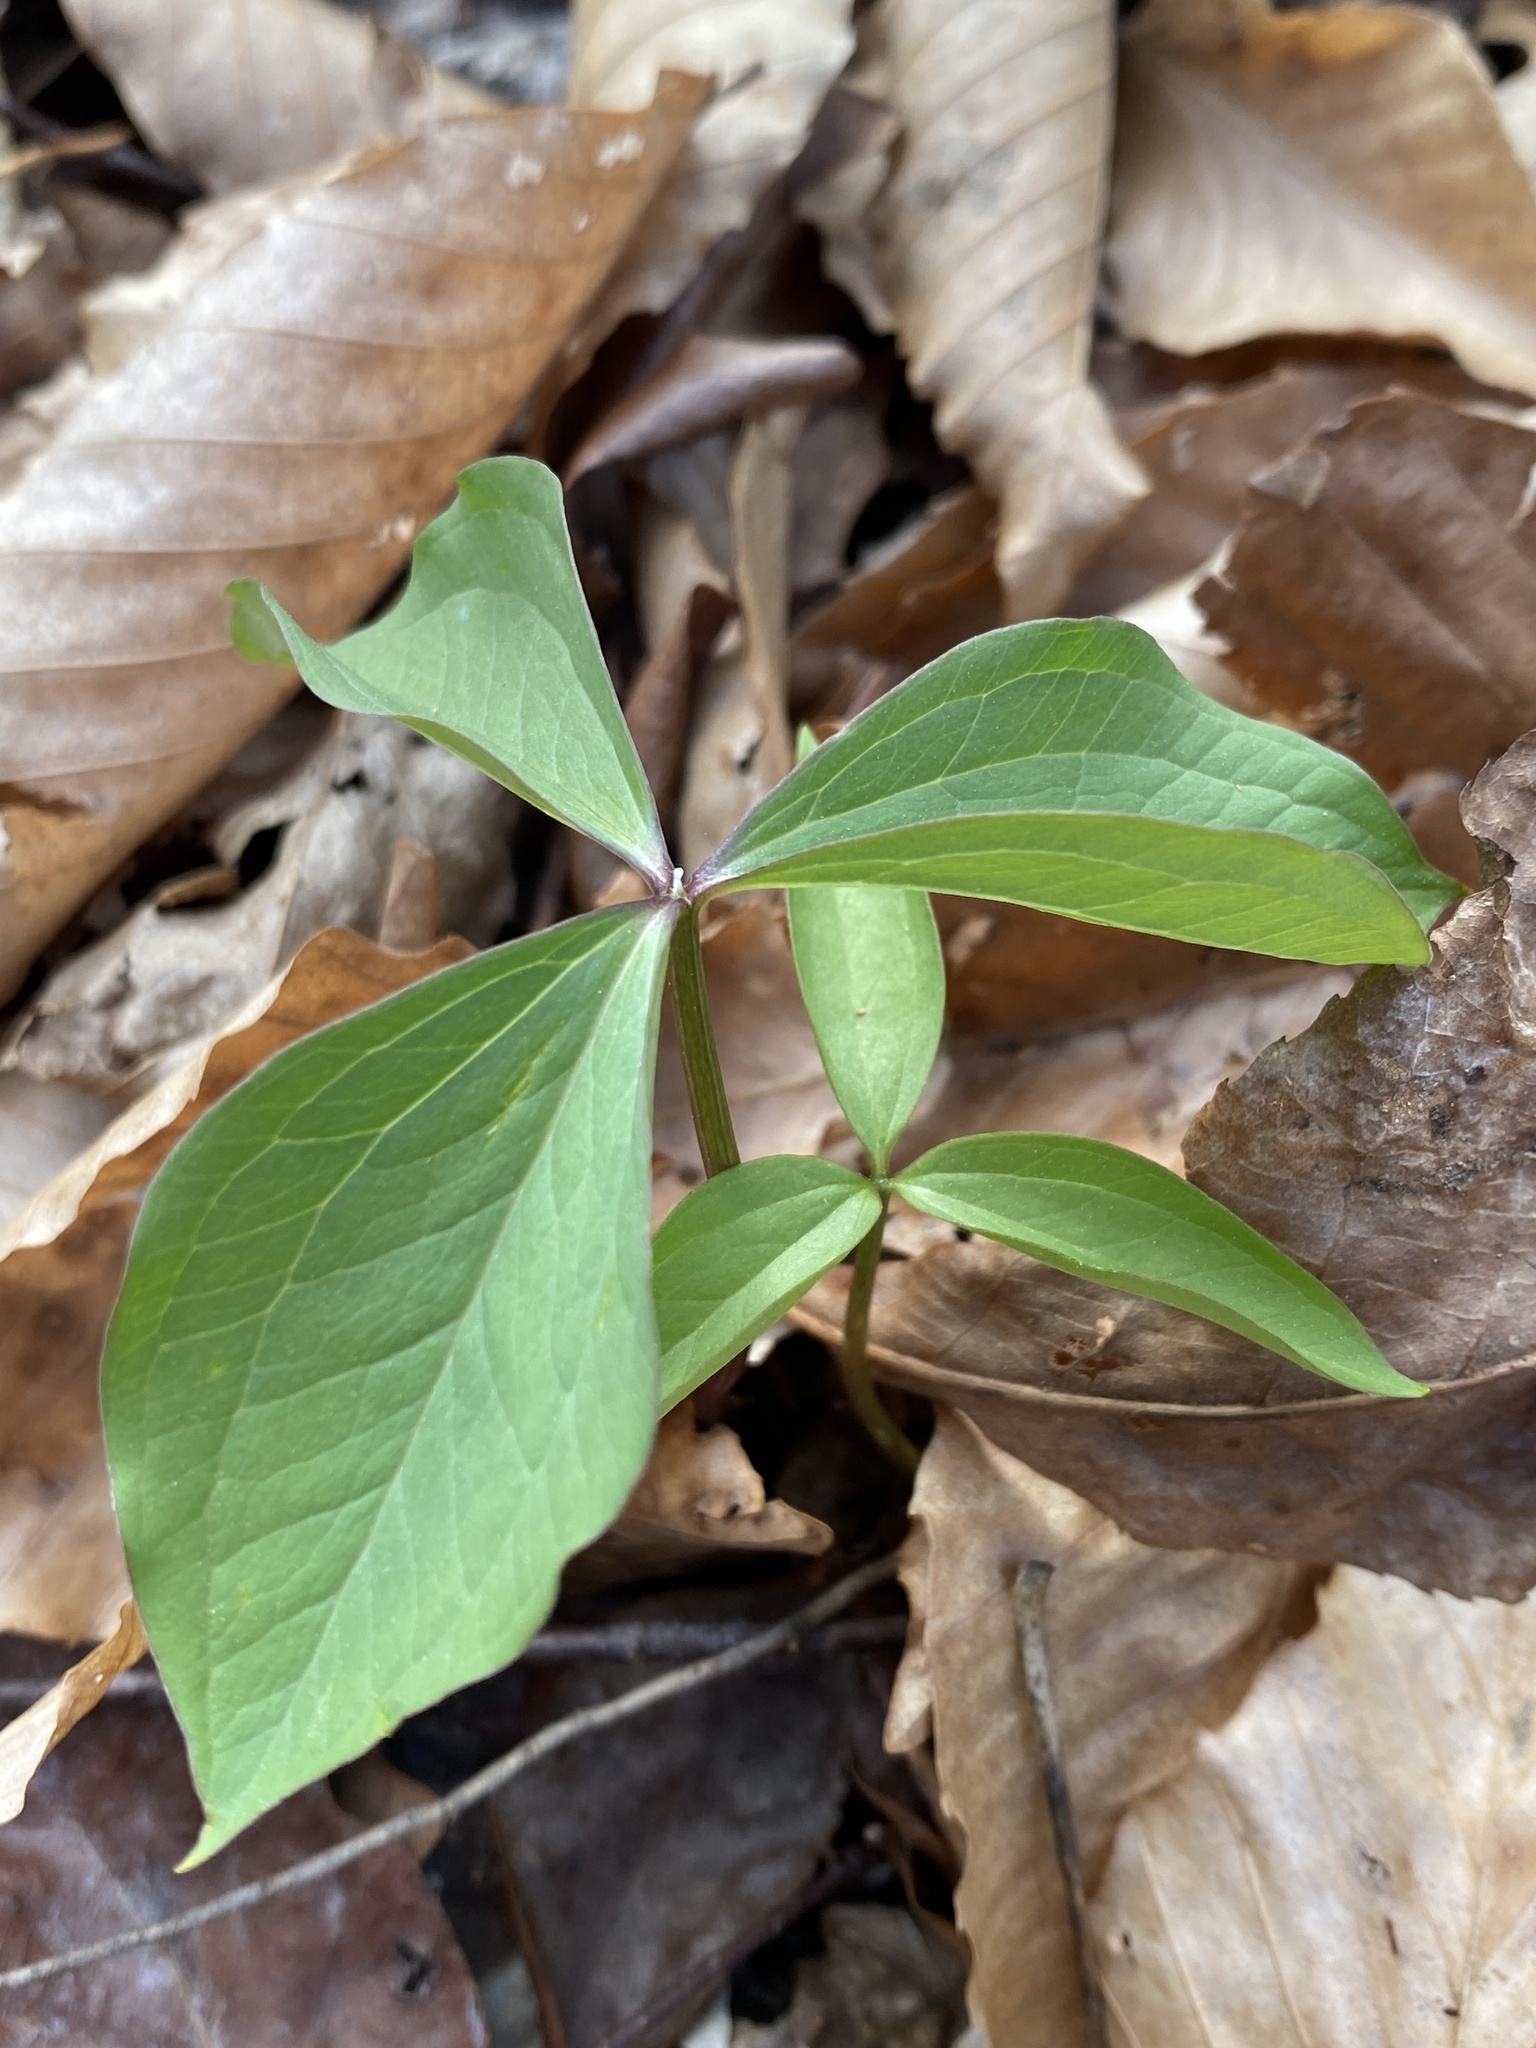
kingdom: Plantae
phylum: Tracheophyta
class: Liliopsida
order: Liliales
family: Melanthiaceae
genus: Trillium
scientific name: Trillium catesbaei
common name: Bashful trillium
